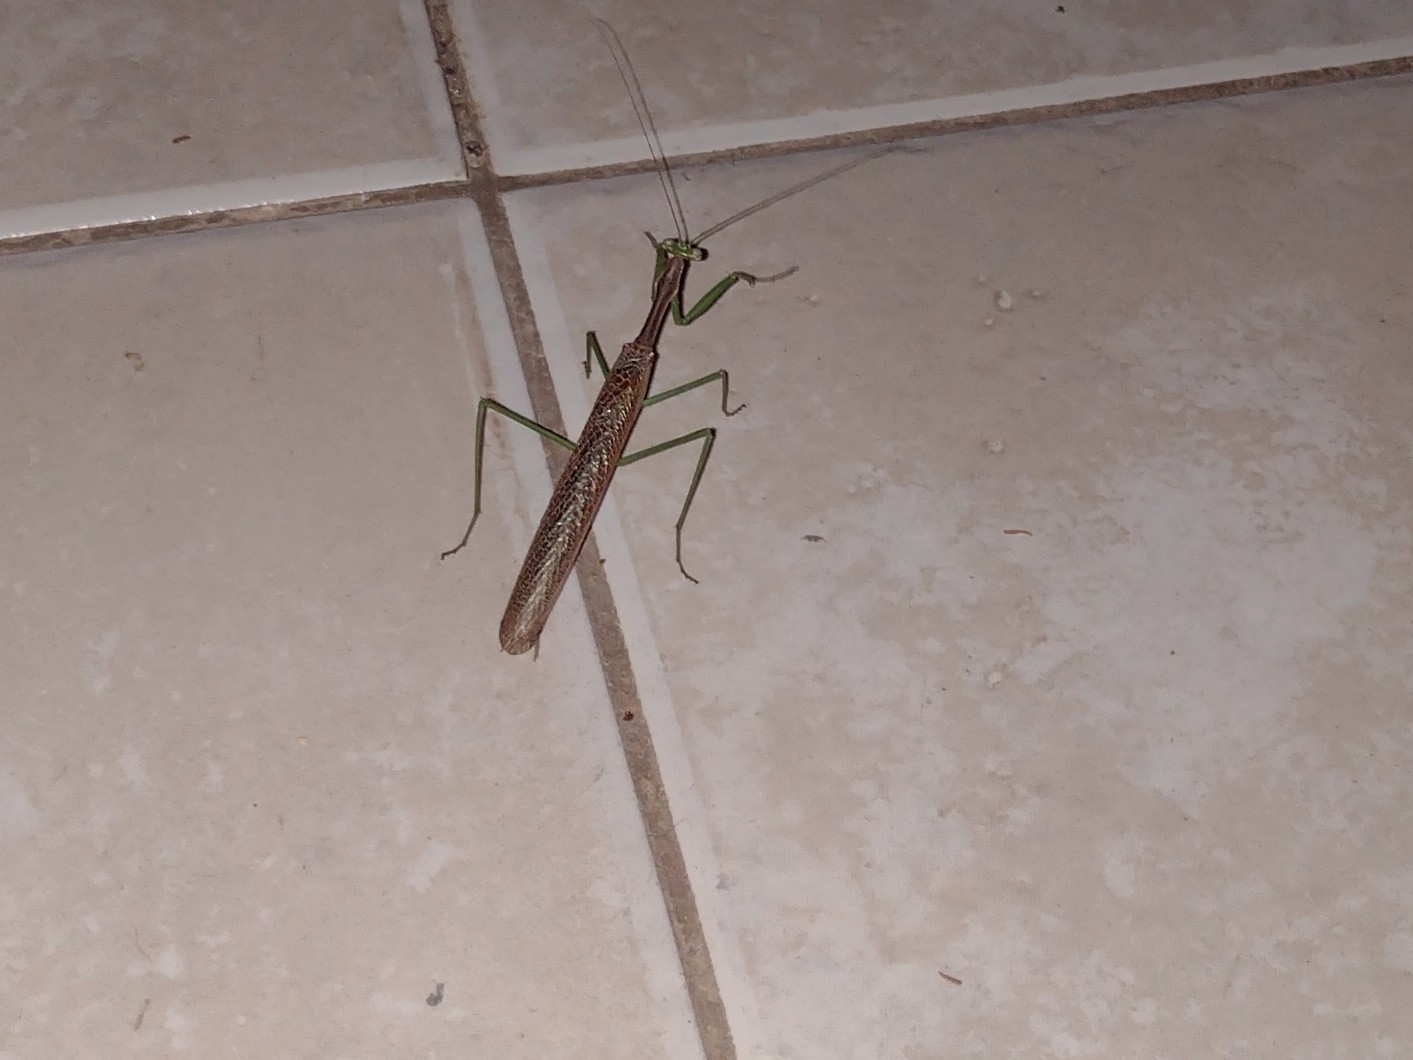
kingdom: Animalia
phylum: Arthropoda
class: Insecta
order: Mantodea
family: Coptopterygidae
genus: Coptopteryx
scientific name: Coptopteryx gayi
